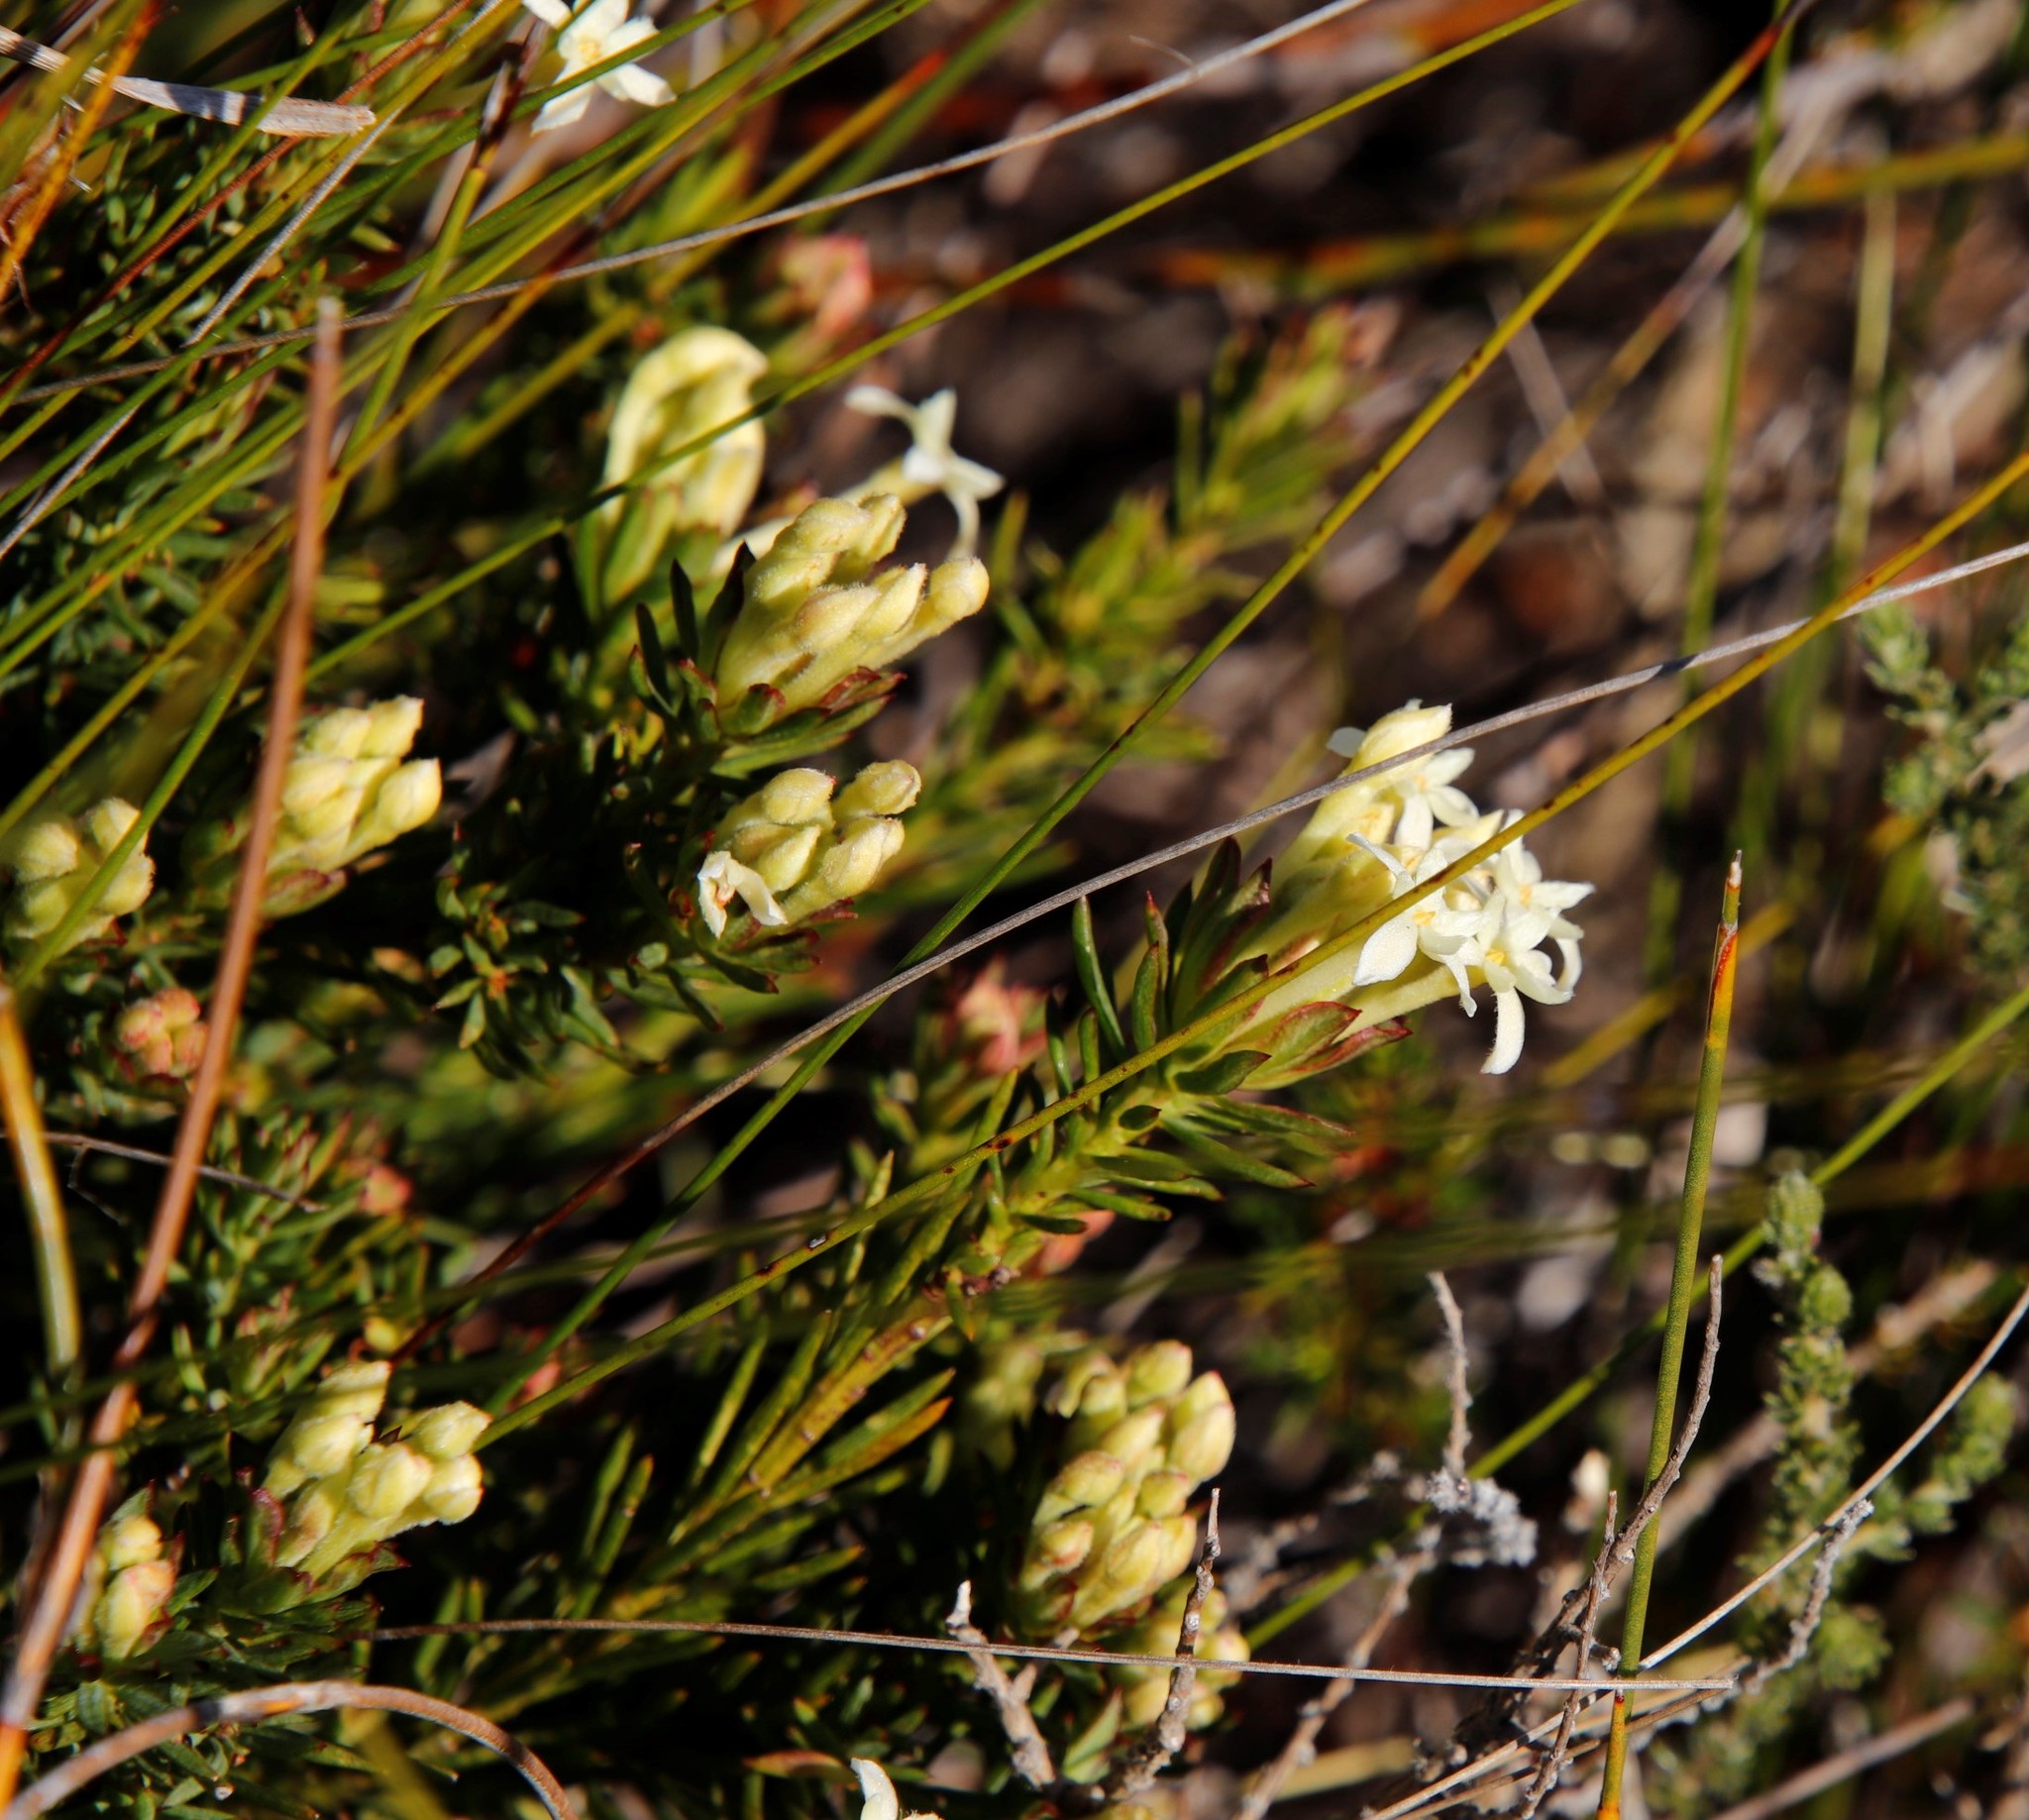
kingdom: Plantae
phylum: Tracheophyta
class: Magnoliopsida
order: Malvales
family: Thymelaeaceae
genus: Gnidia
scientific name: Gnidia pinifolia
